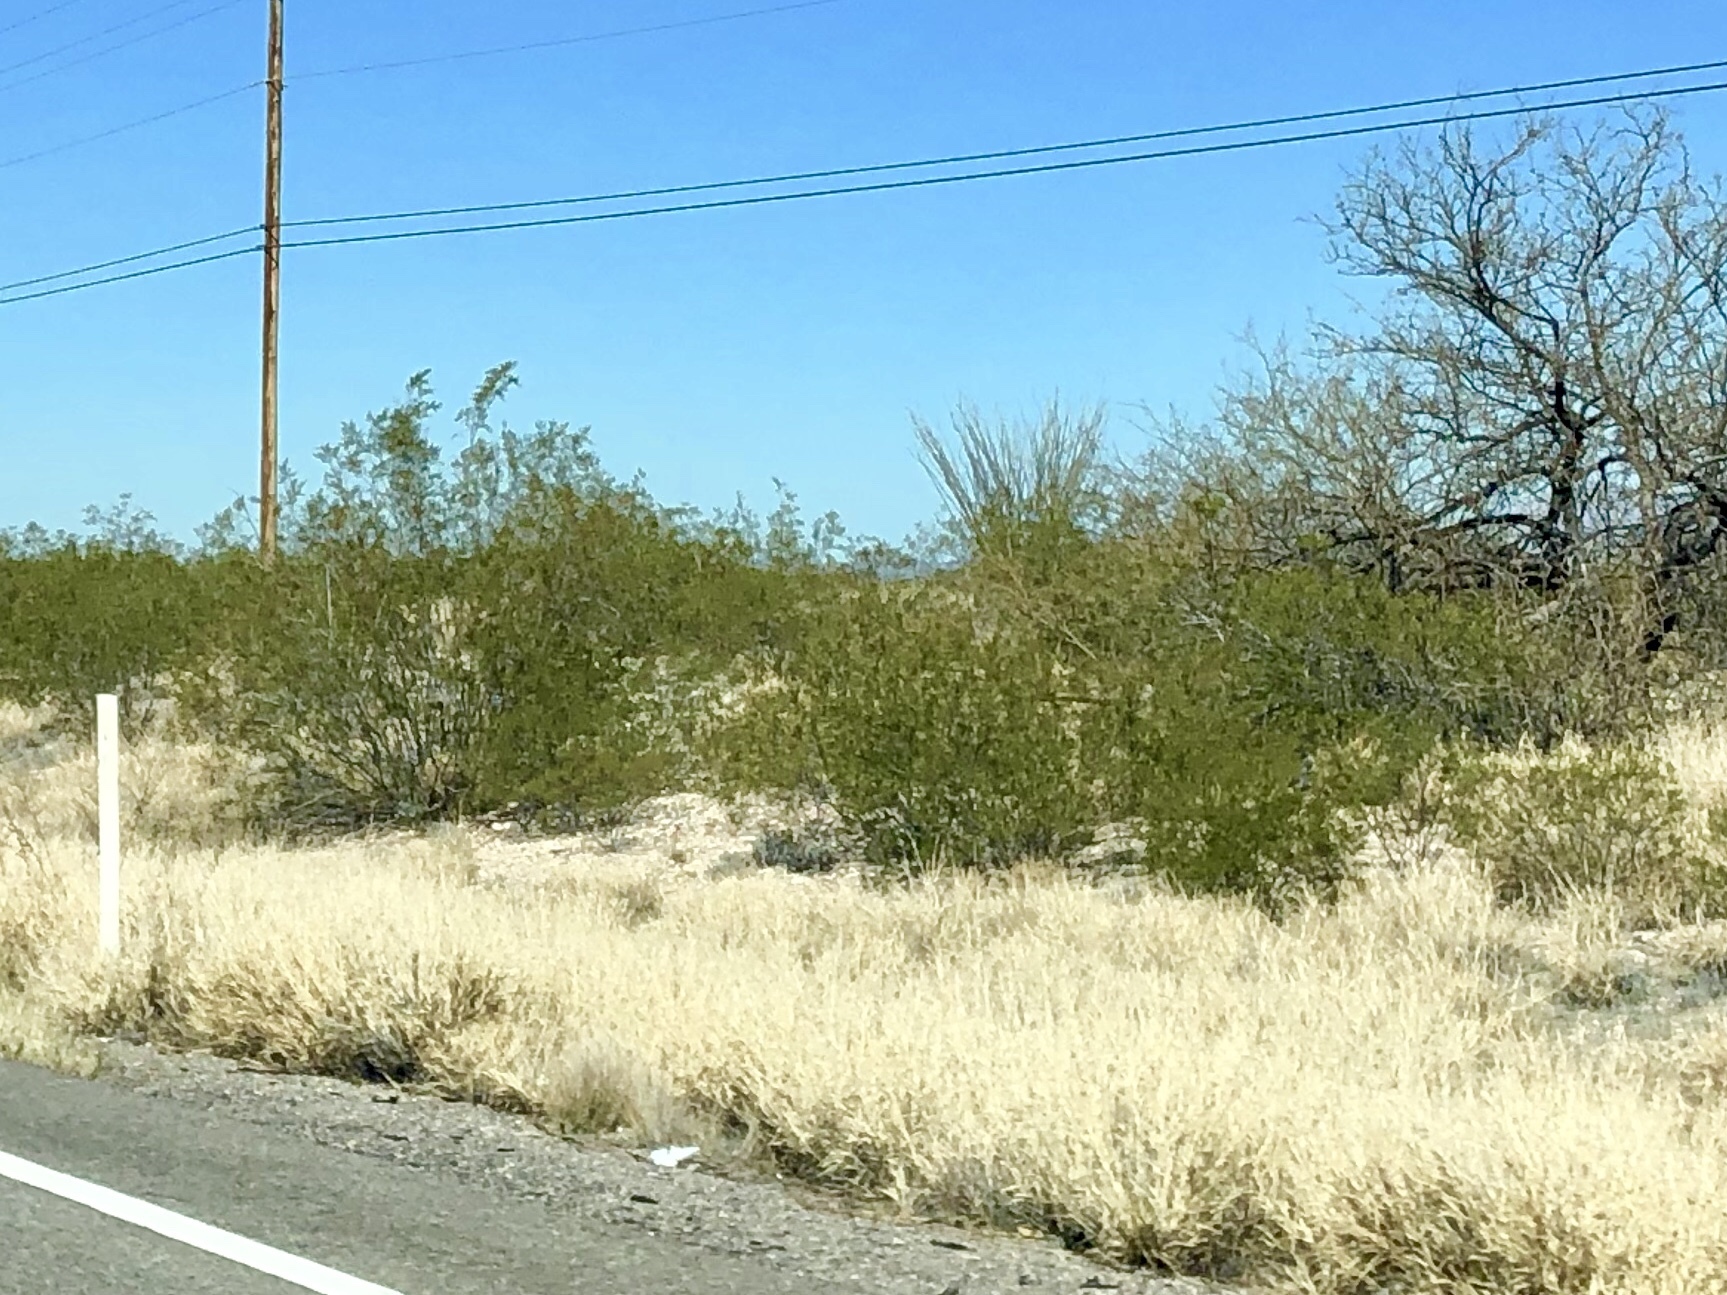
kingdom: Plantae
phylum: Tracheophyta
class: Magnoliopsida
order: Zygophyllales
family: Zygophyllaceae
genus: Larrea
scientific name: Larrea tridentata
